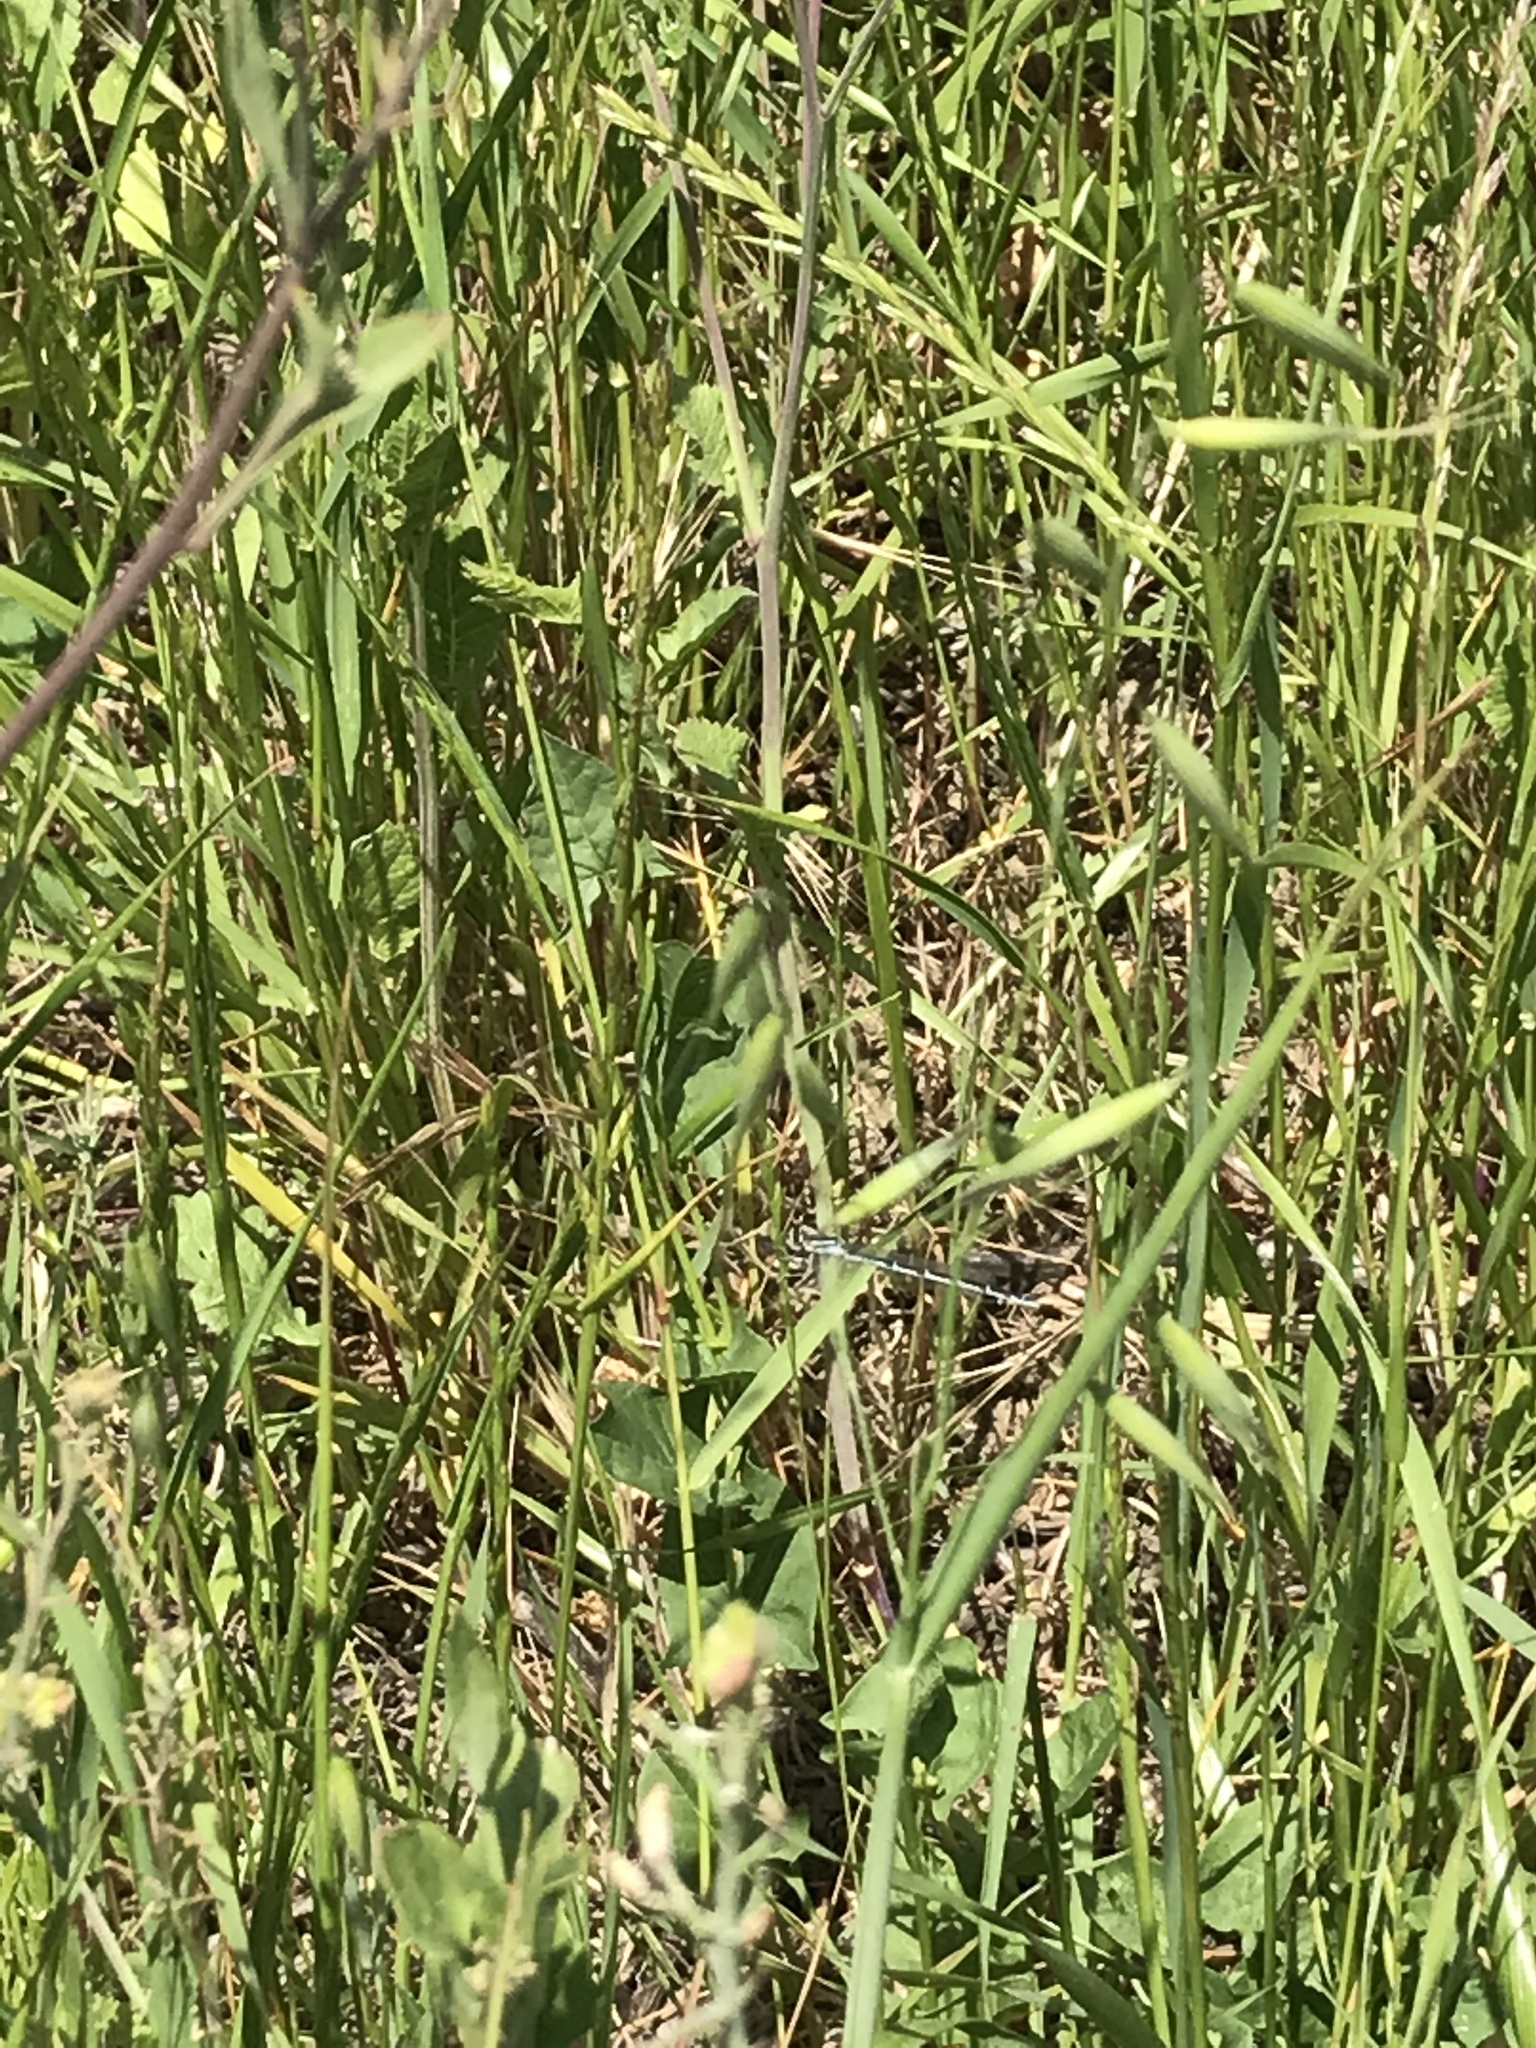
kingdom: Animalia
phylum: Arthropoda
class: Insecta
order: Odonata
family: Coenagrionidae
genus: Enallagma
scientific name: Enallagma
